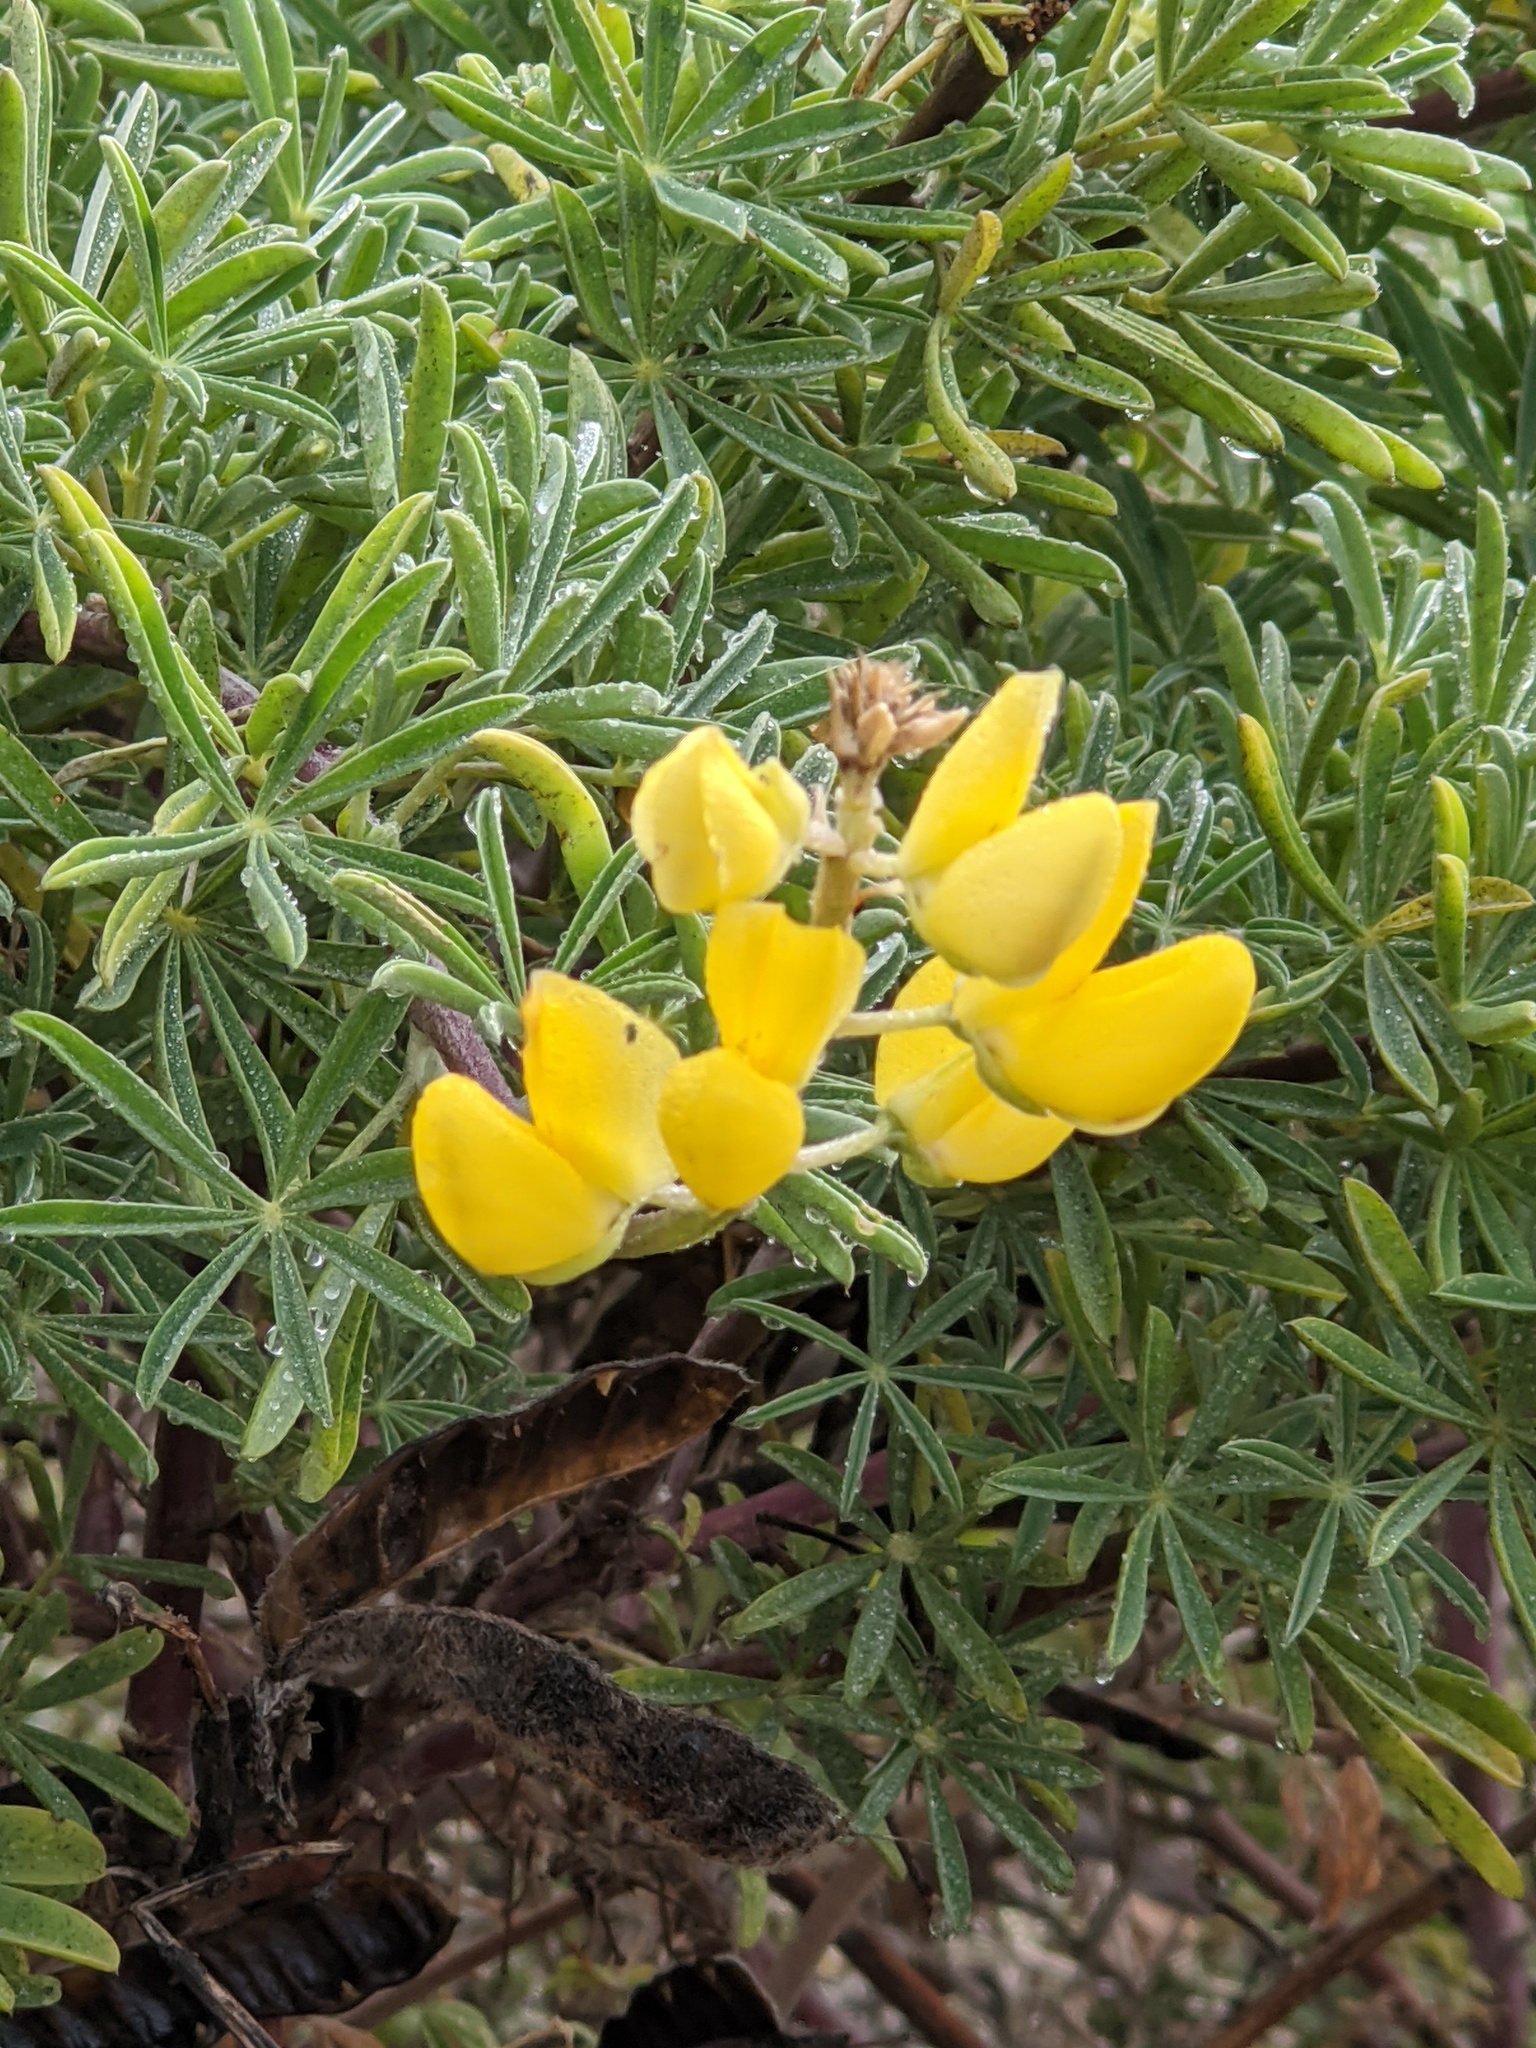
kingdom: Plantae
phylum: Tracheophyta
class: Magnoliopsida
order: Fabales
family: Fabaceae
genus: Lupinus
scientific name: Lupinus arboreus
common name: Yellow bush lupine
